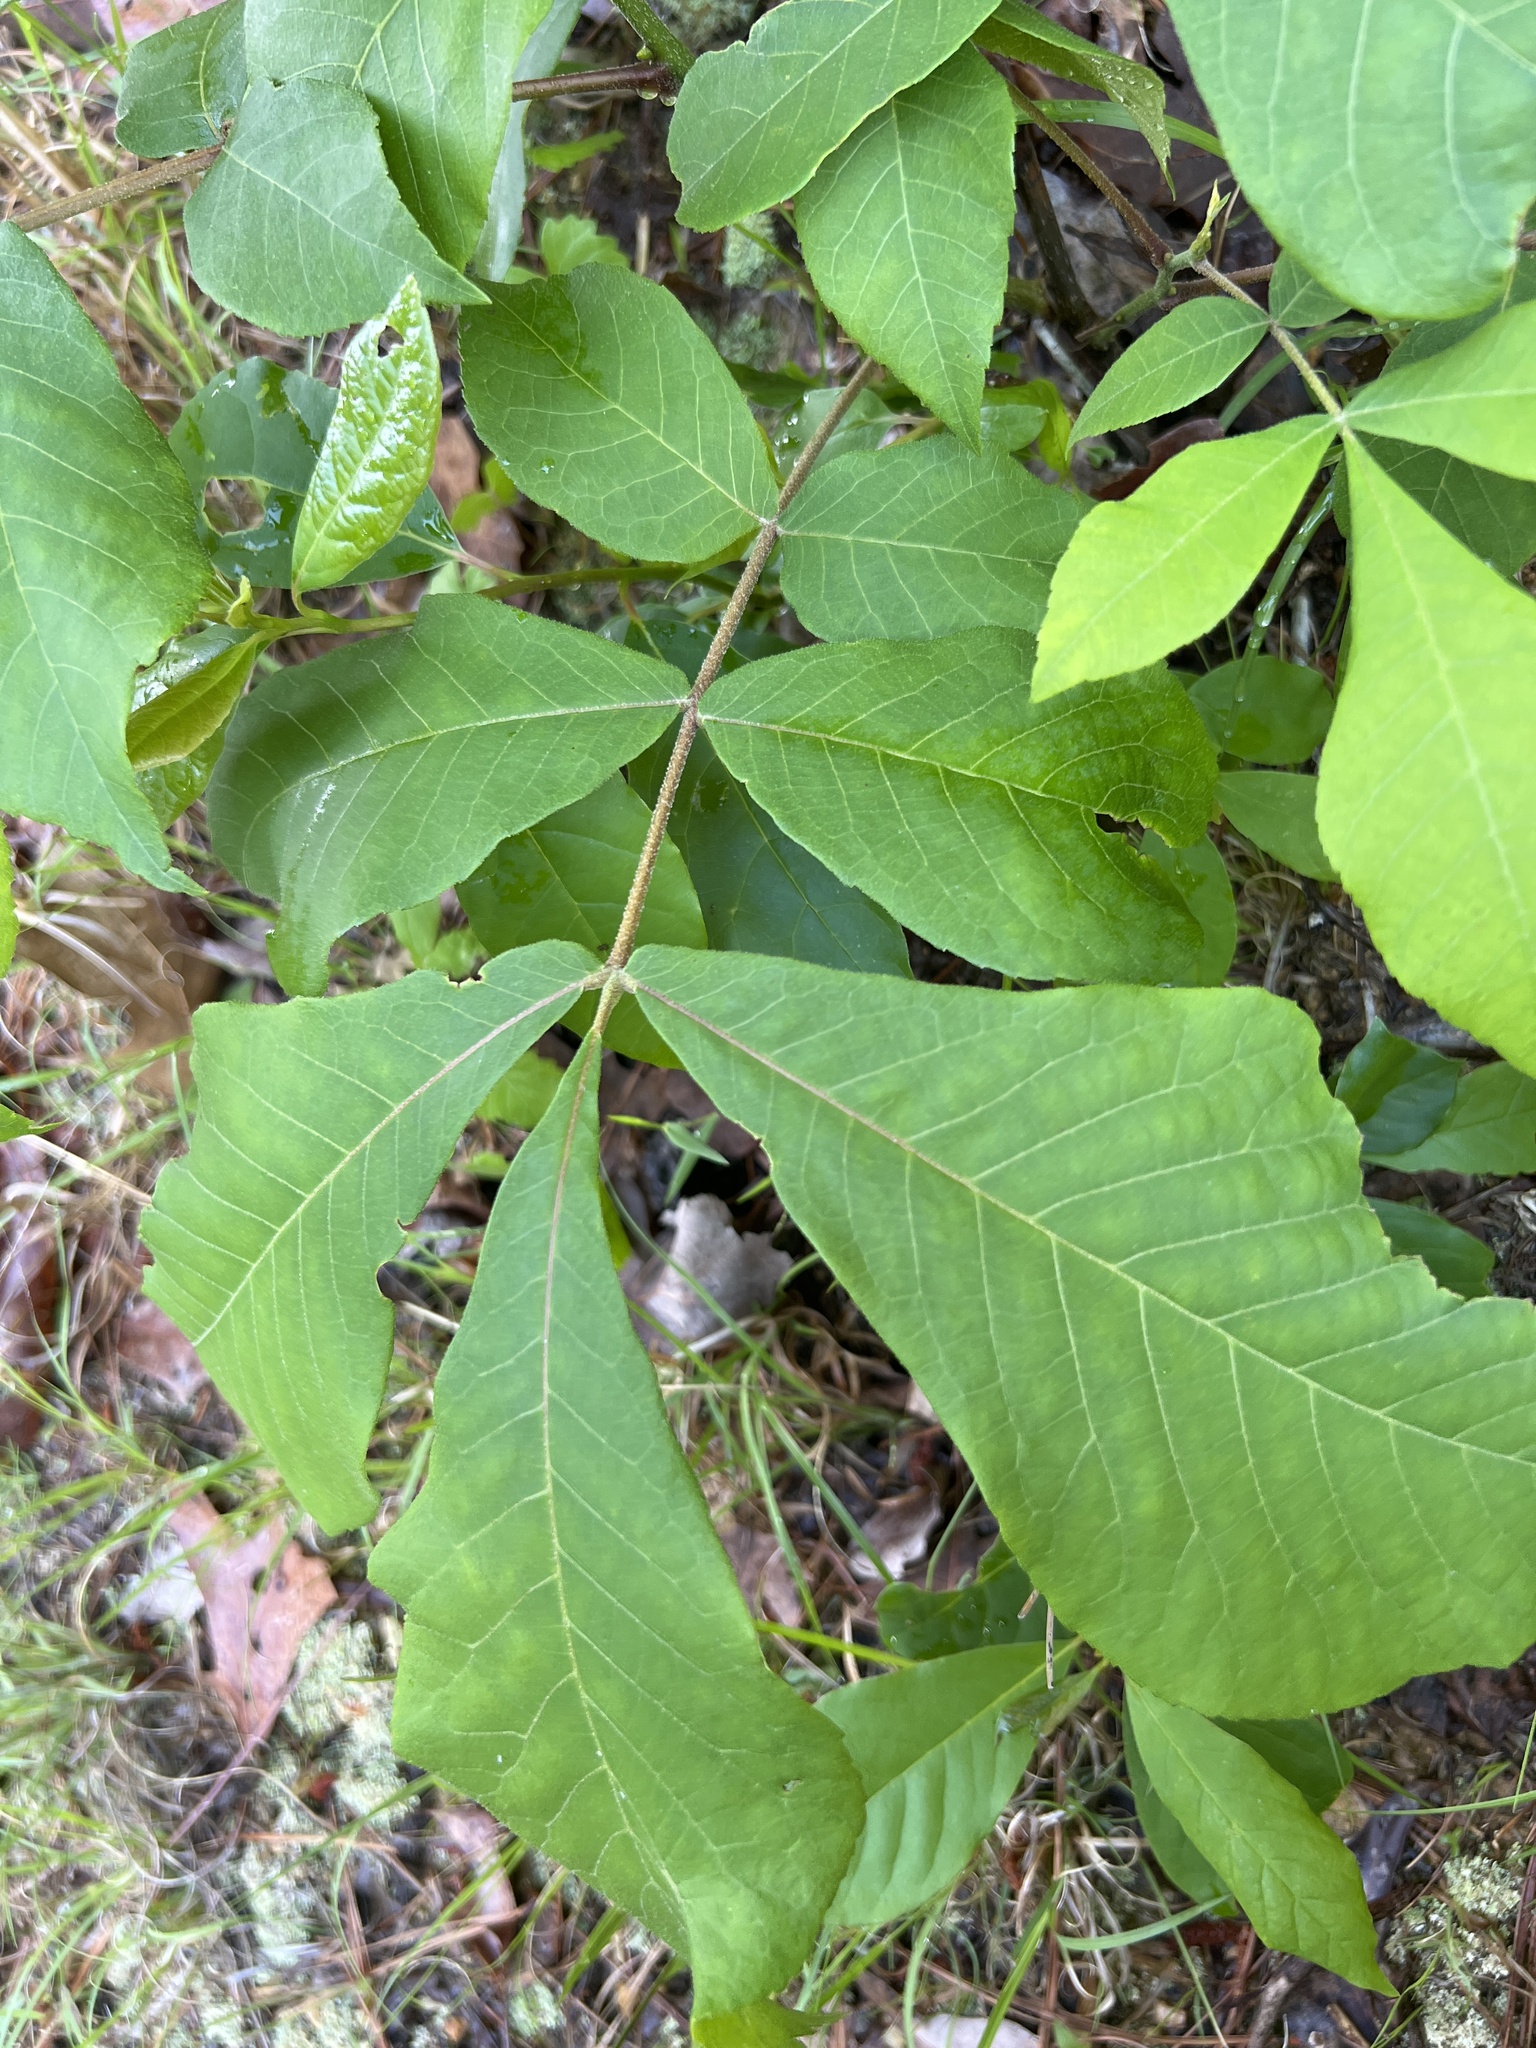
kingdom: Plantae
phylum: Tracheophyta
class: Magnoliopsida
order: Fagales
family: Juglandaceae
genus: Carya
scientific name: Carya alba
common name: Mockernut hickory
